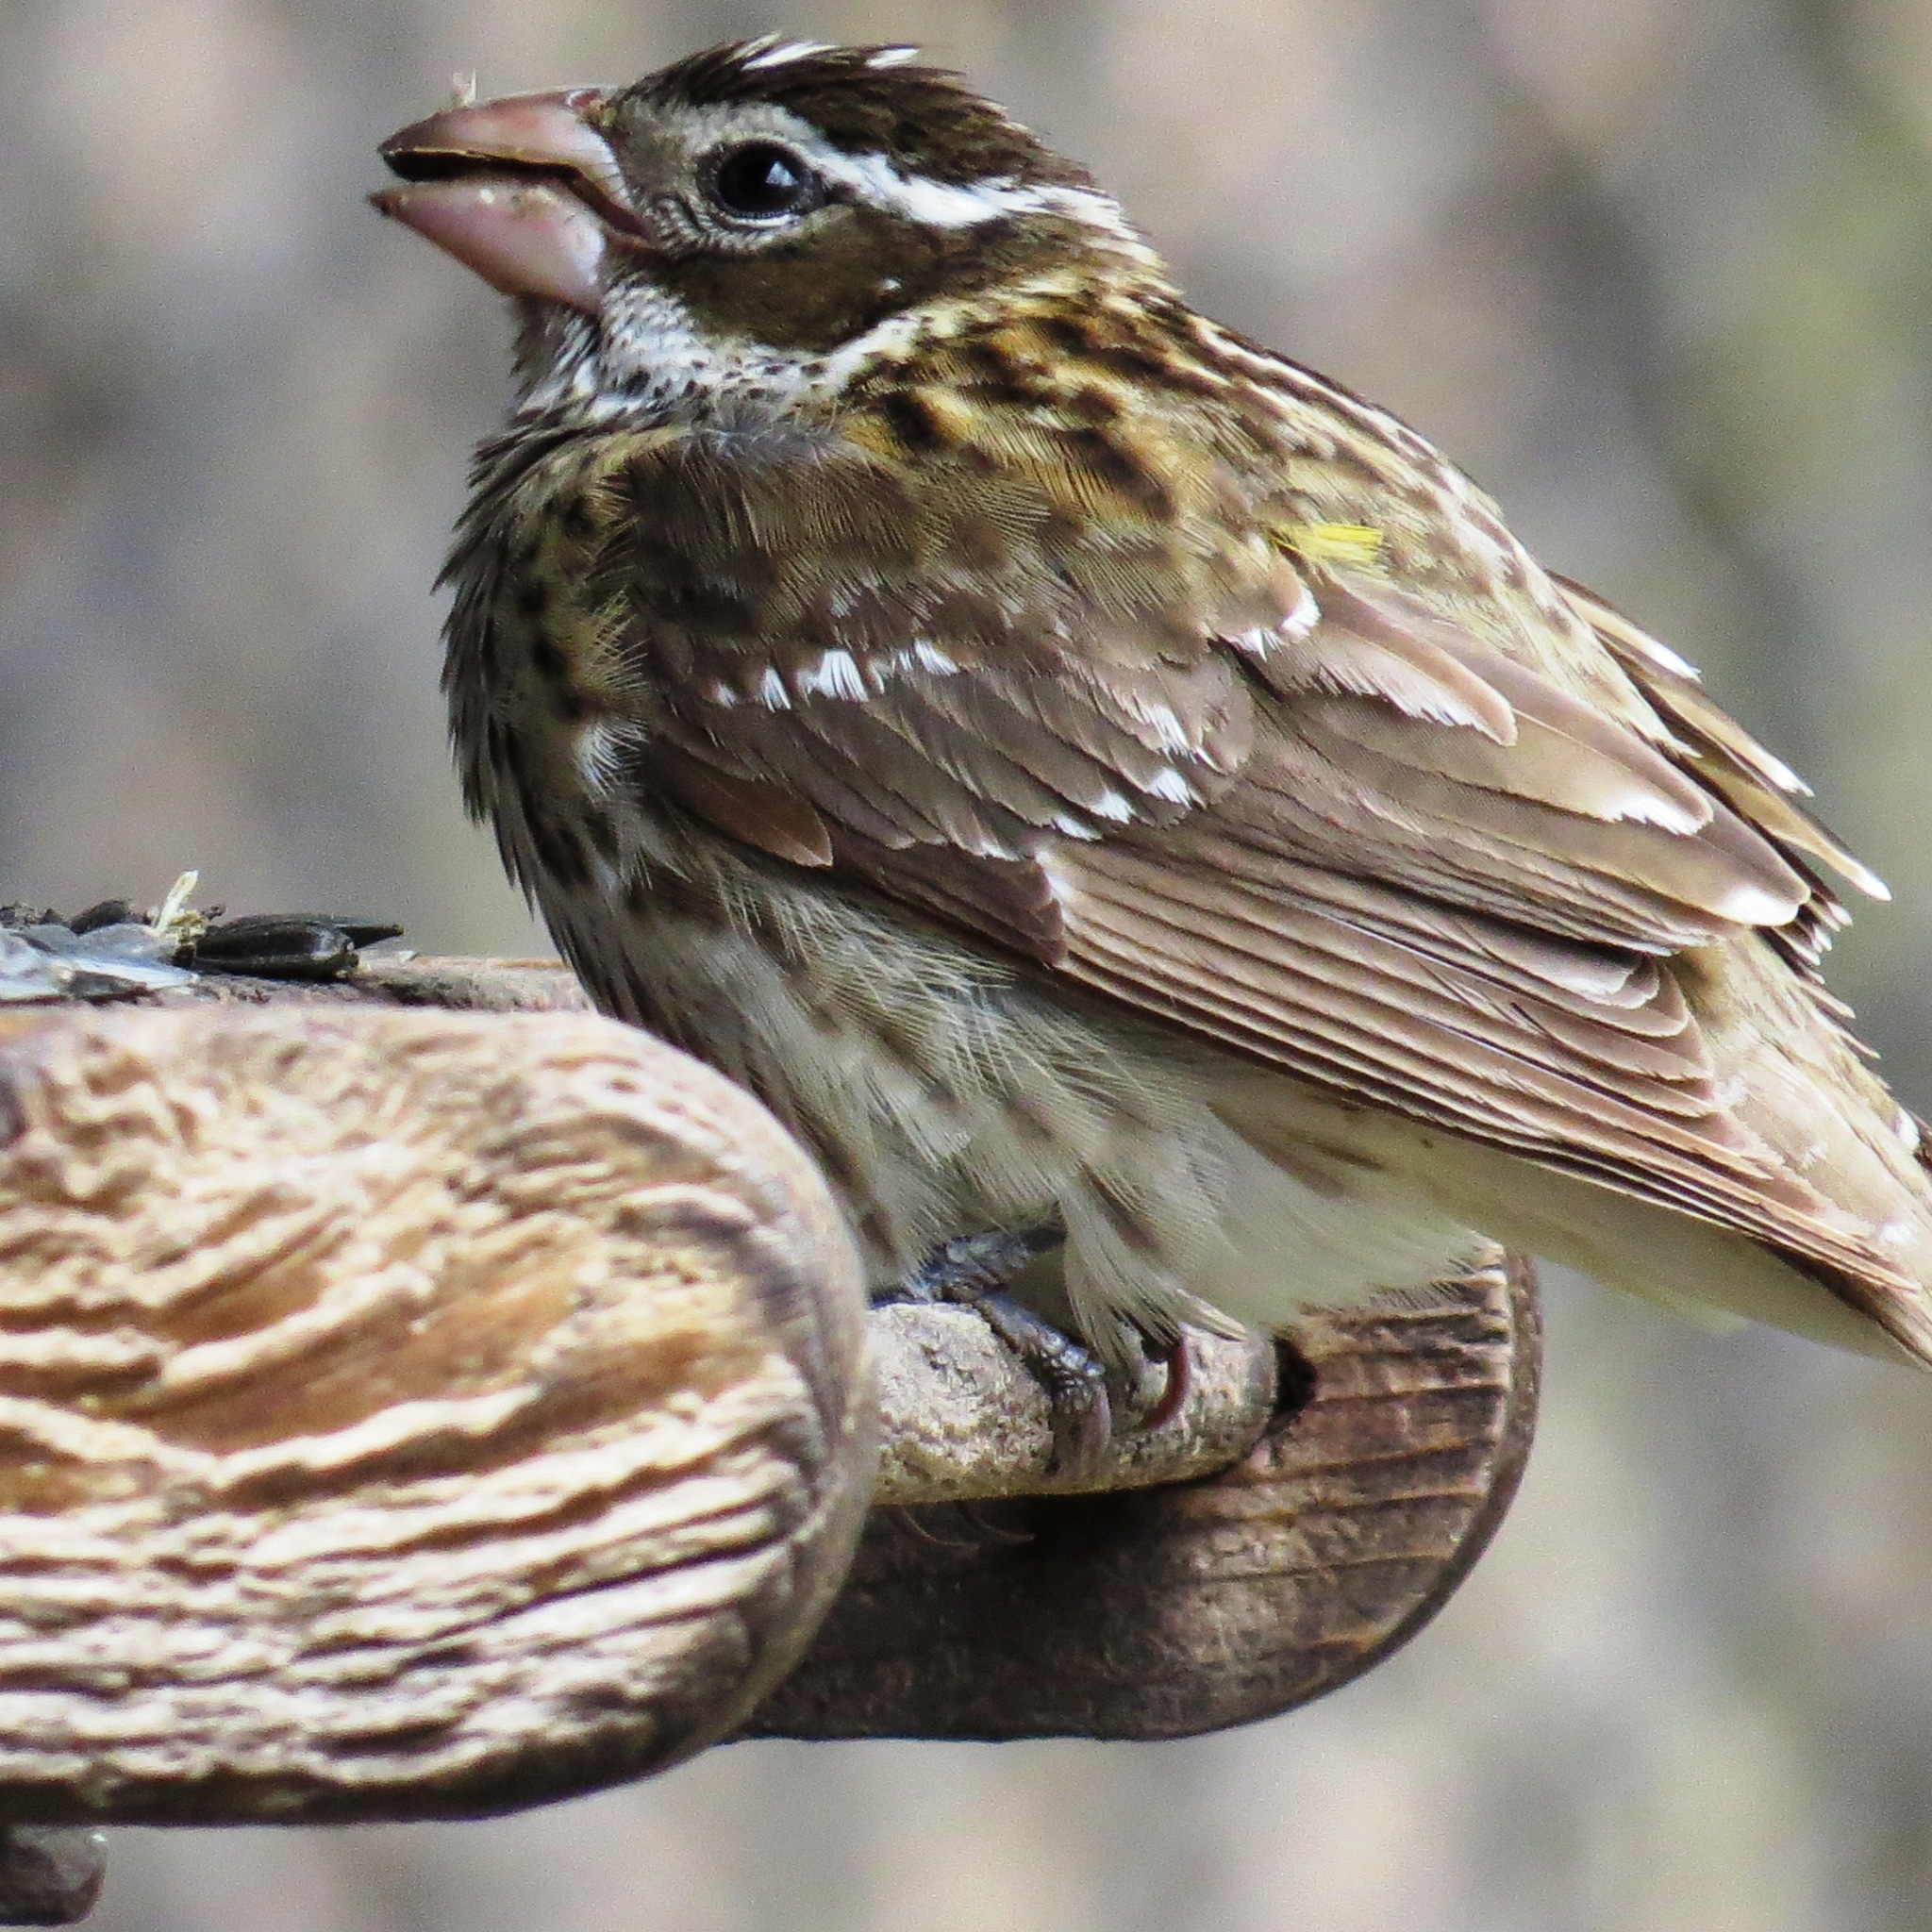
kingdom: Animalia
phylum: Chordata
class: Aves
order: Passeriformes
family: Cardinalidae
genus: Pheucticus
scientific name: Pheucticus ludovicianus
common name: Rose-breasted grosbeak
